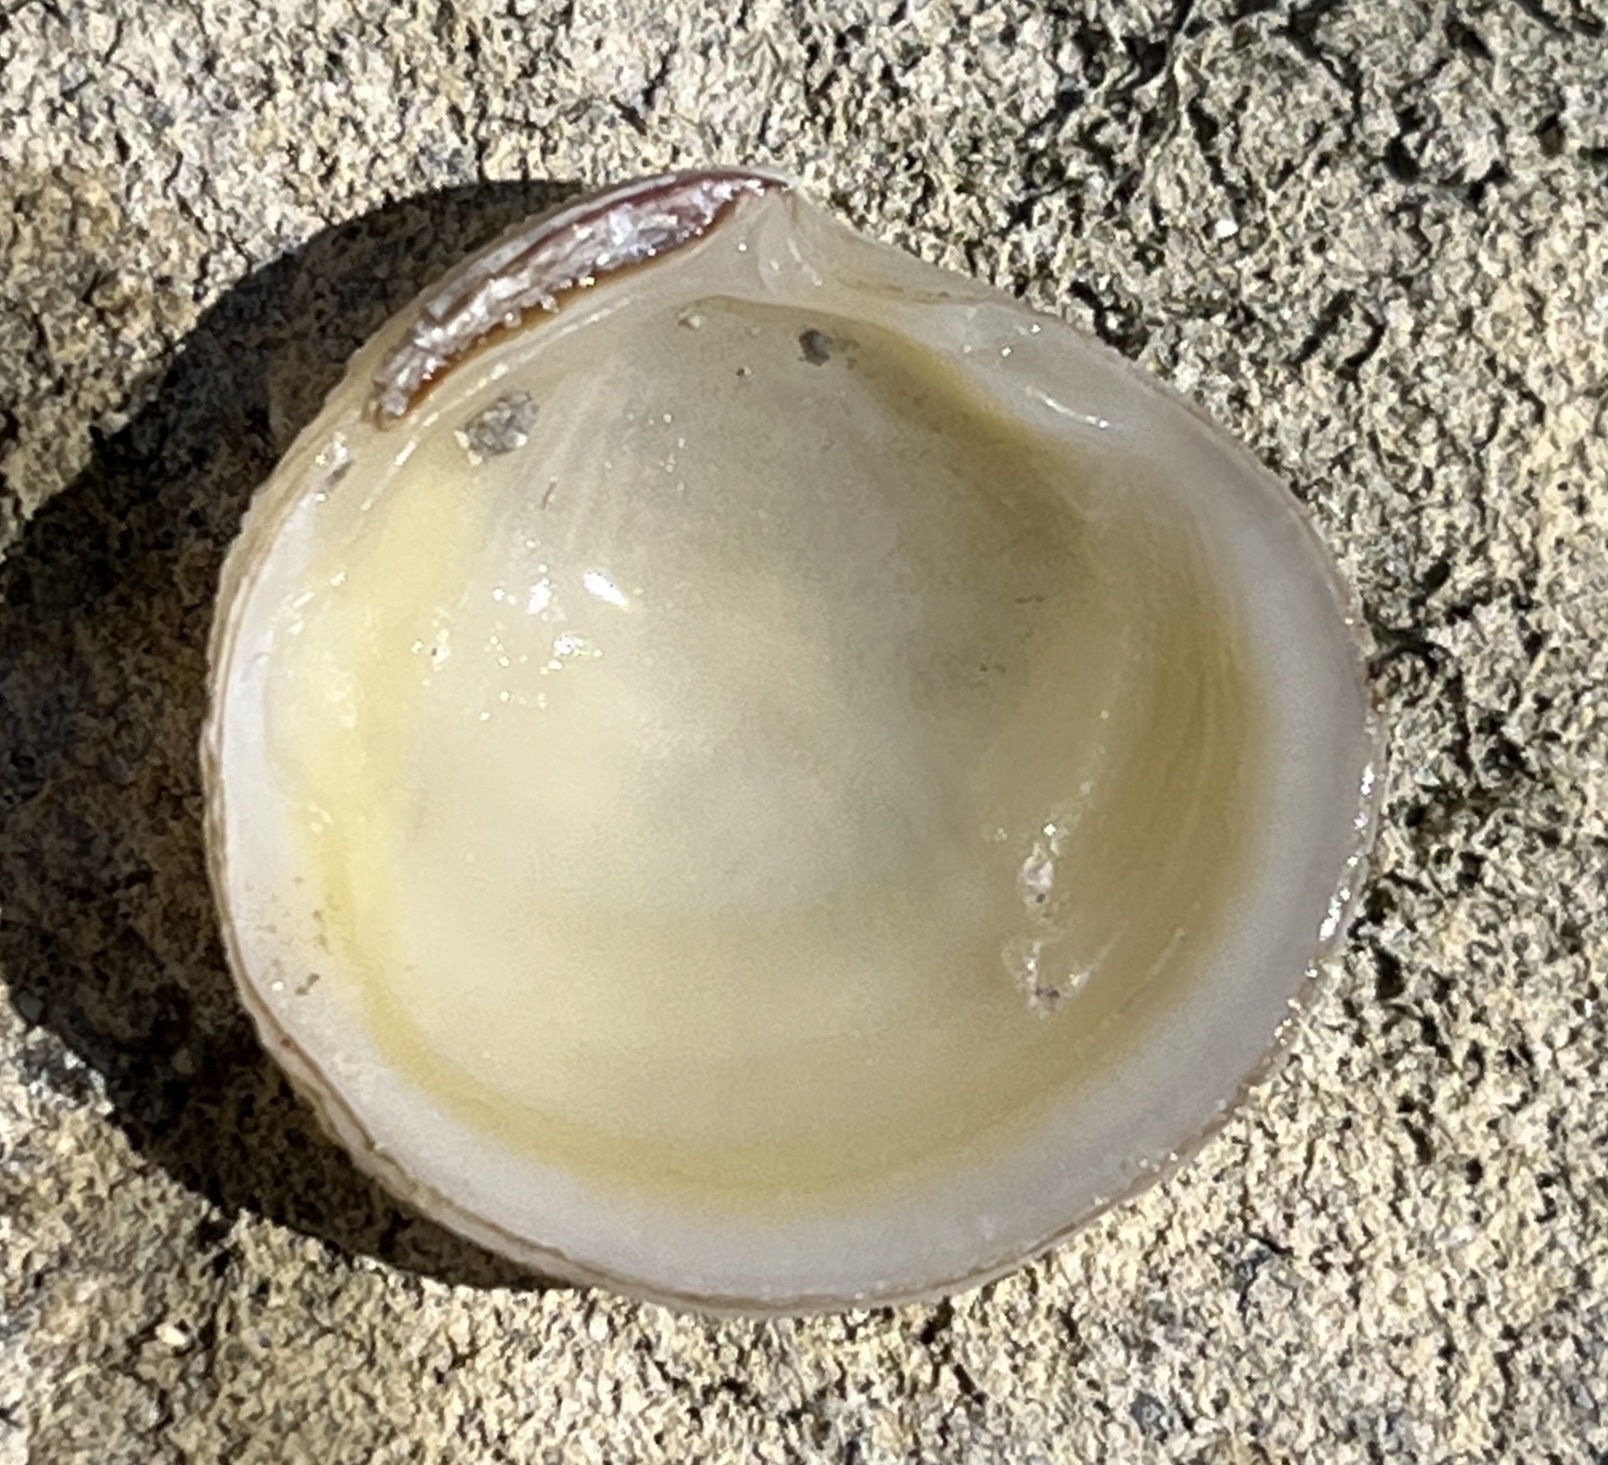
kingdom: Animalia
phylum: Mollusca
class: Bivalvia
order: Lucinida
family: Lucinidae
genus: Ctena
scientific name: Ctena orbiculata
